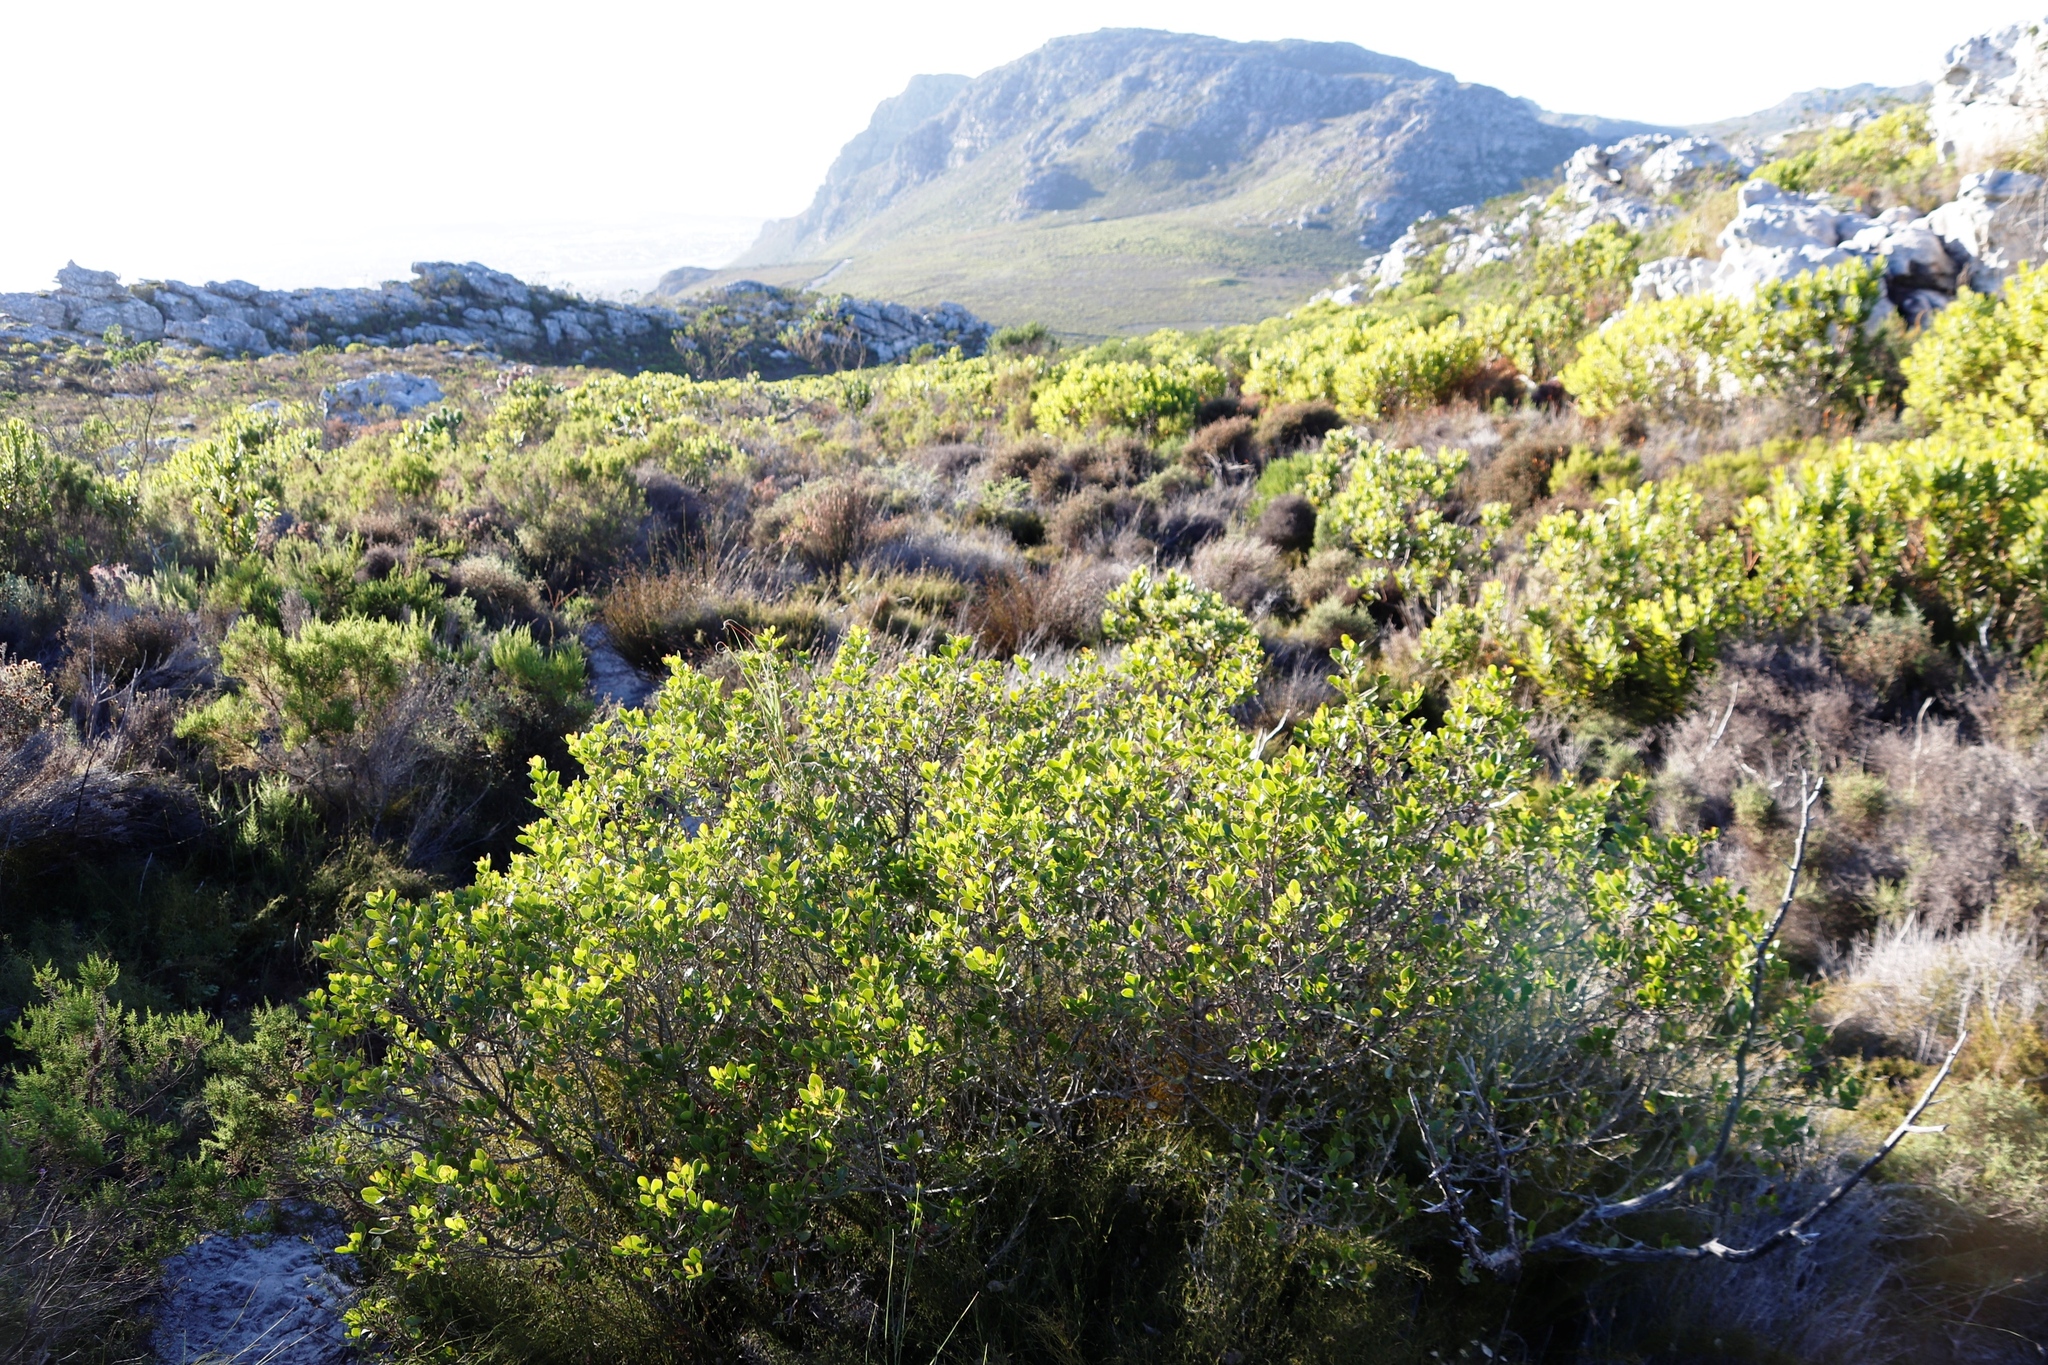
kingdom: Plantae
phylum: Tracheophyta
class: Magnoliopsida
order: Sapindales
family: Anacardiaceae
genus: Searsia
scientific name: Searsia lucida
